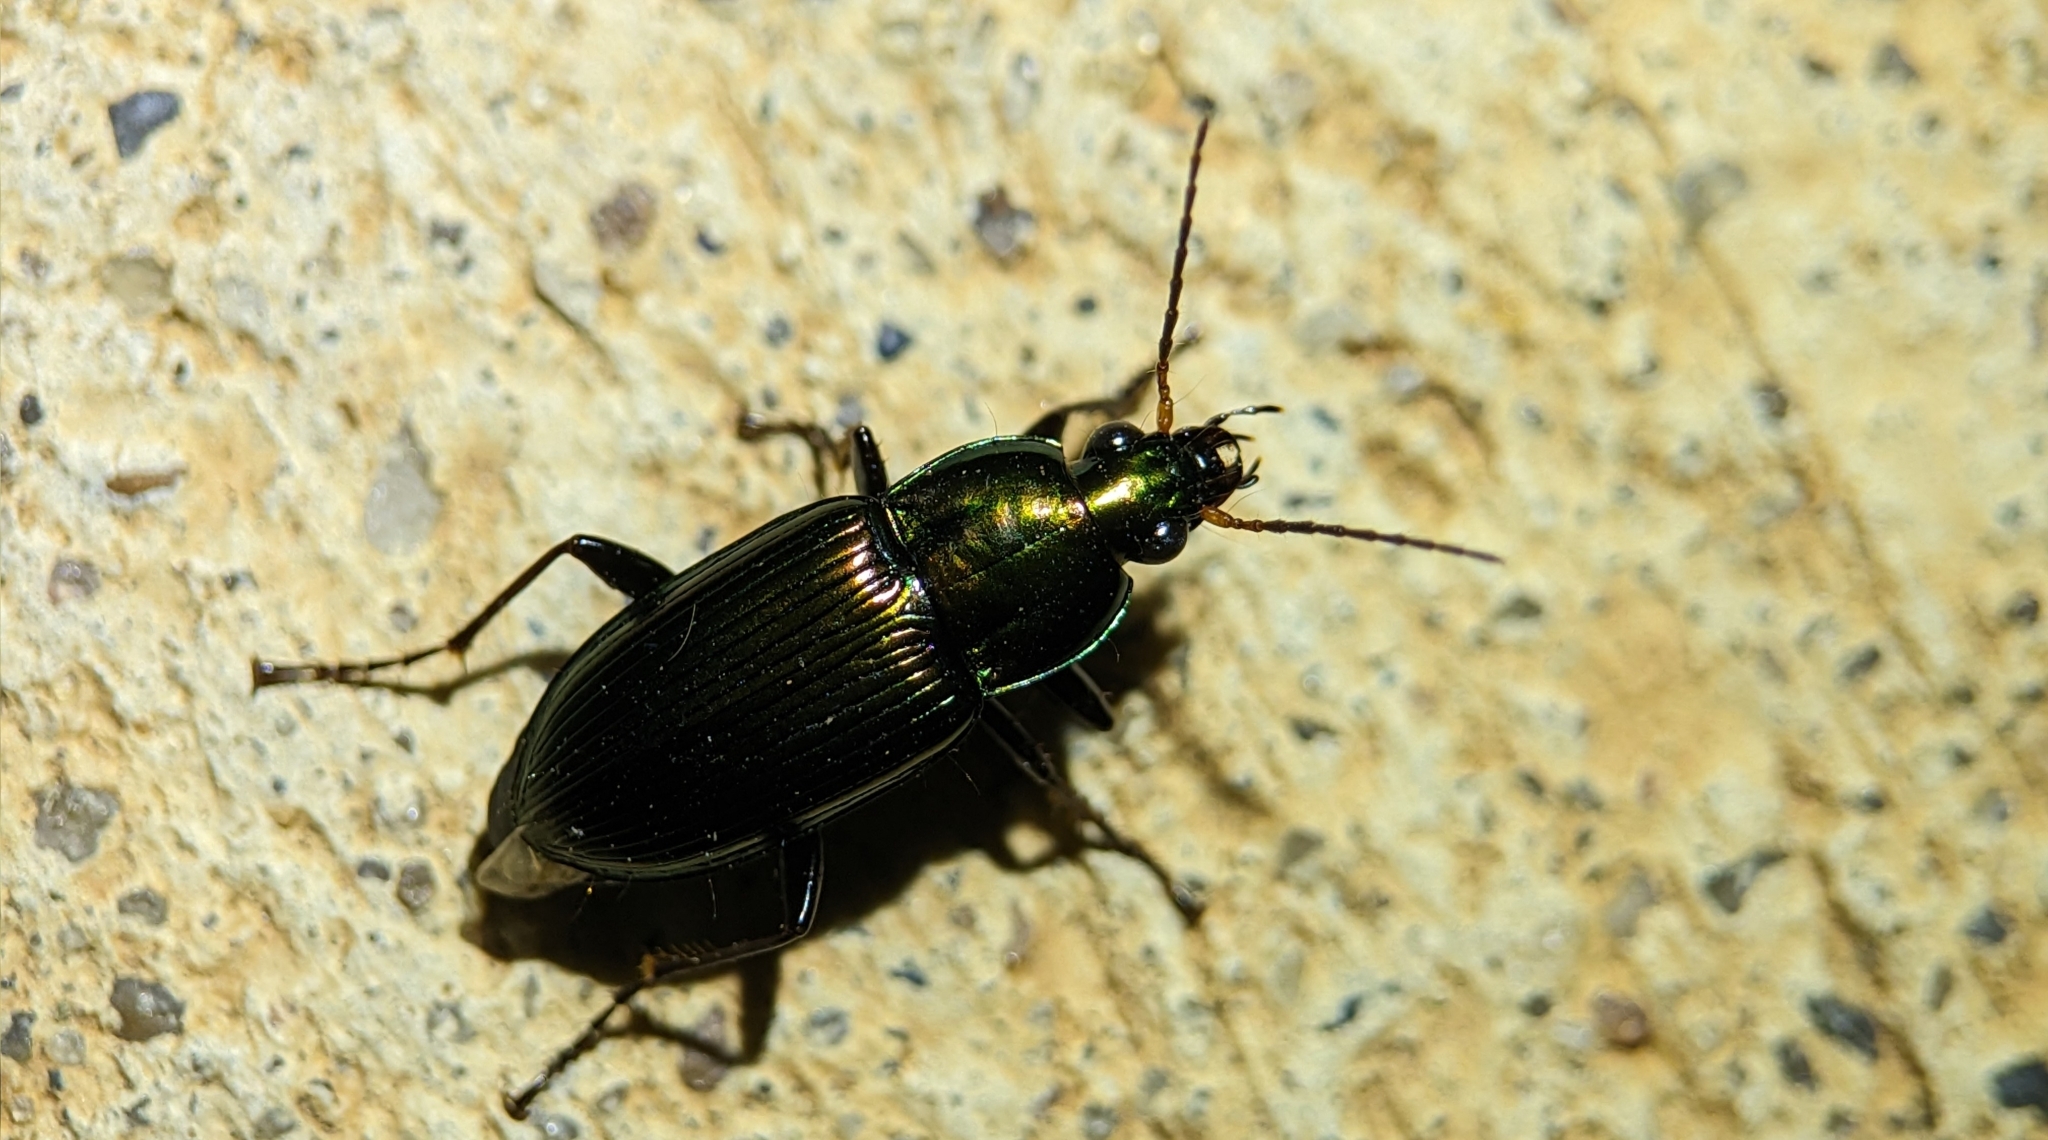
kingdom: Animalia
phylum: Arthropoda
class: Insecta
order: Coleoptera
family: Carabidae
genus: Poecilus
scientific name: Poecilus chalcites
